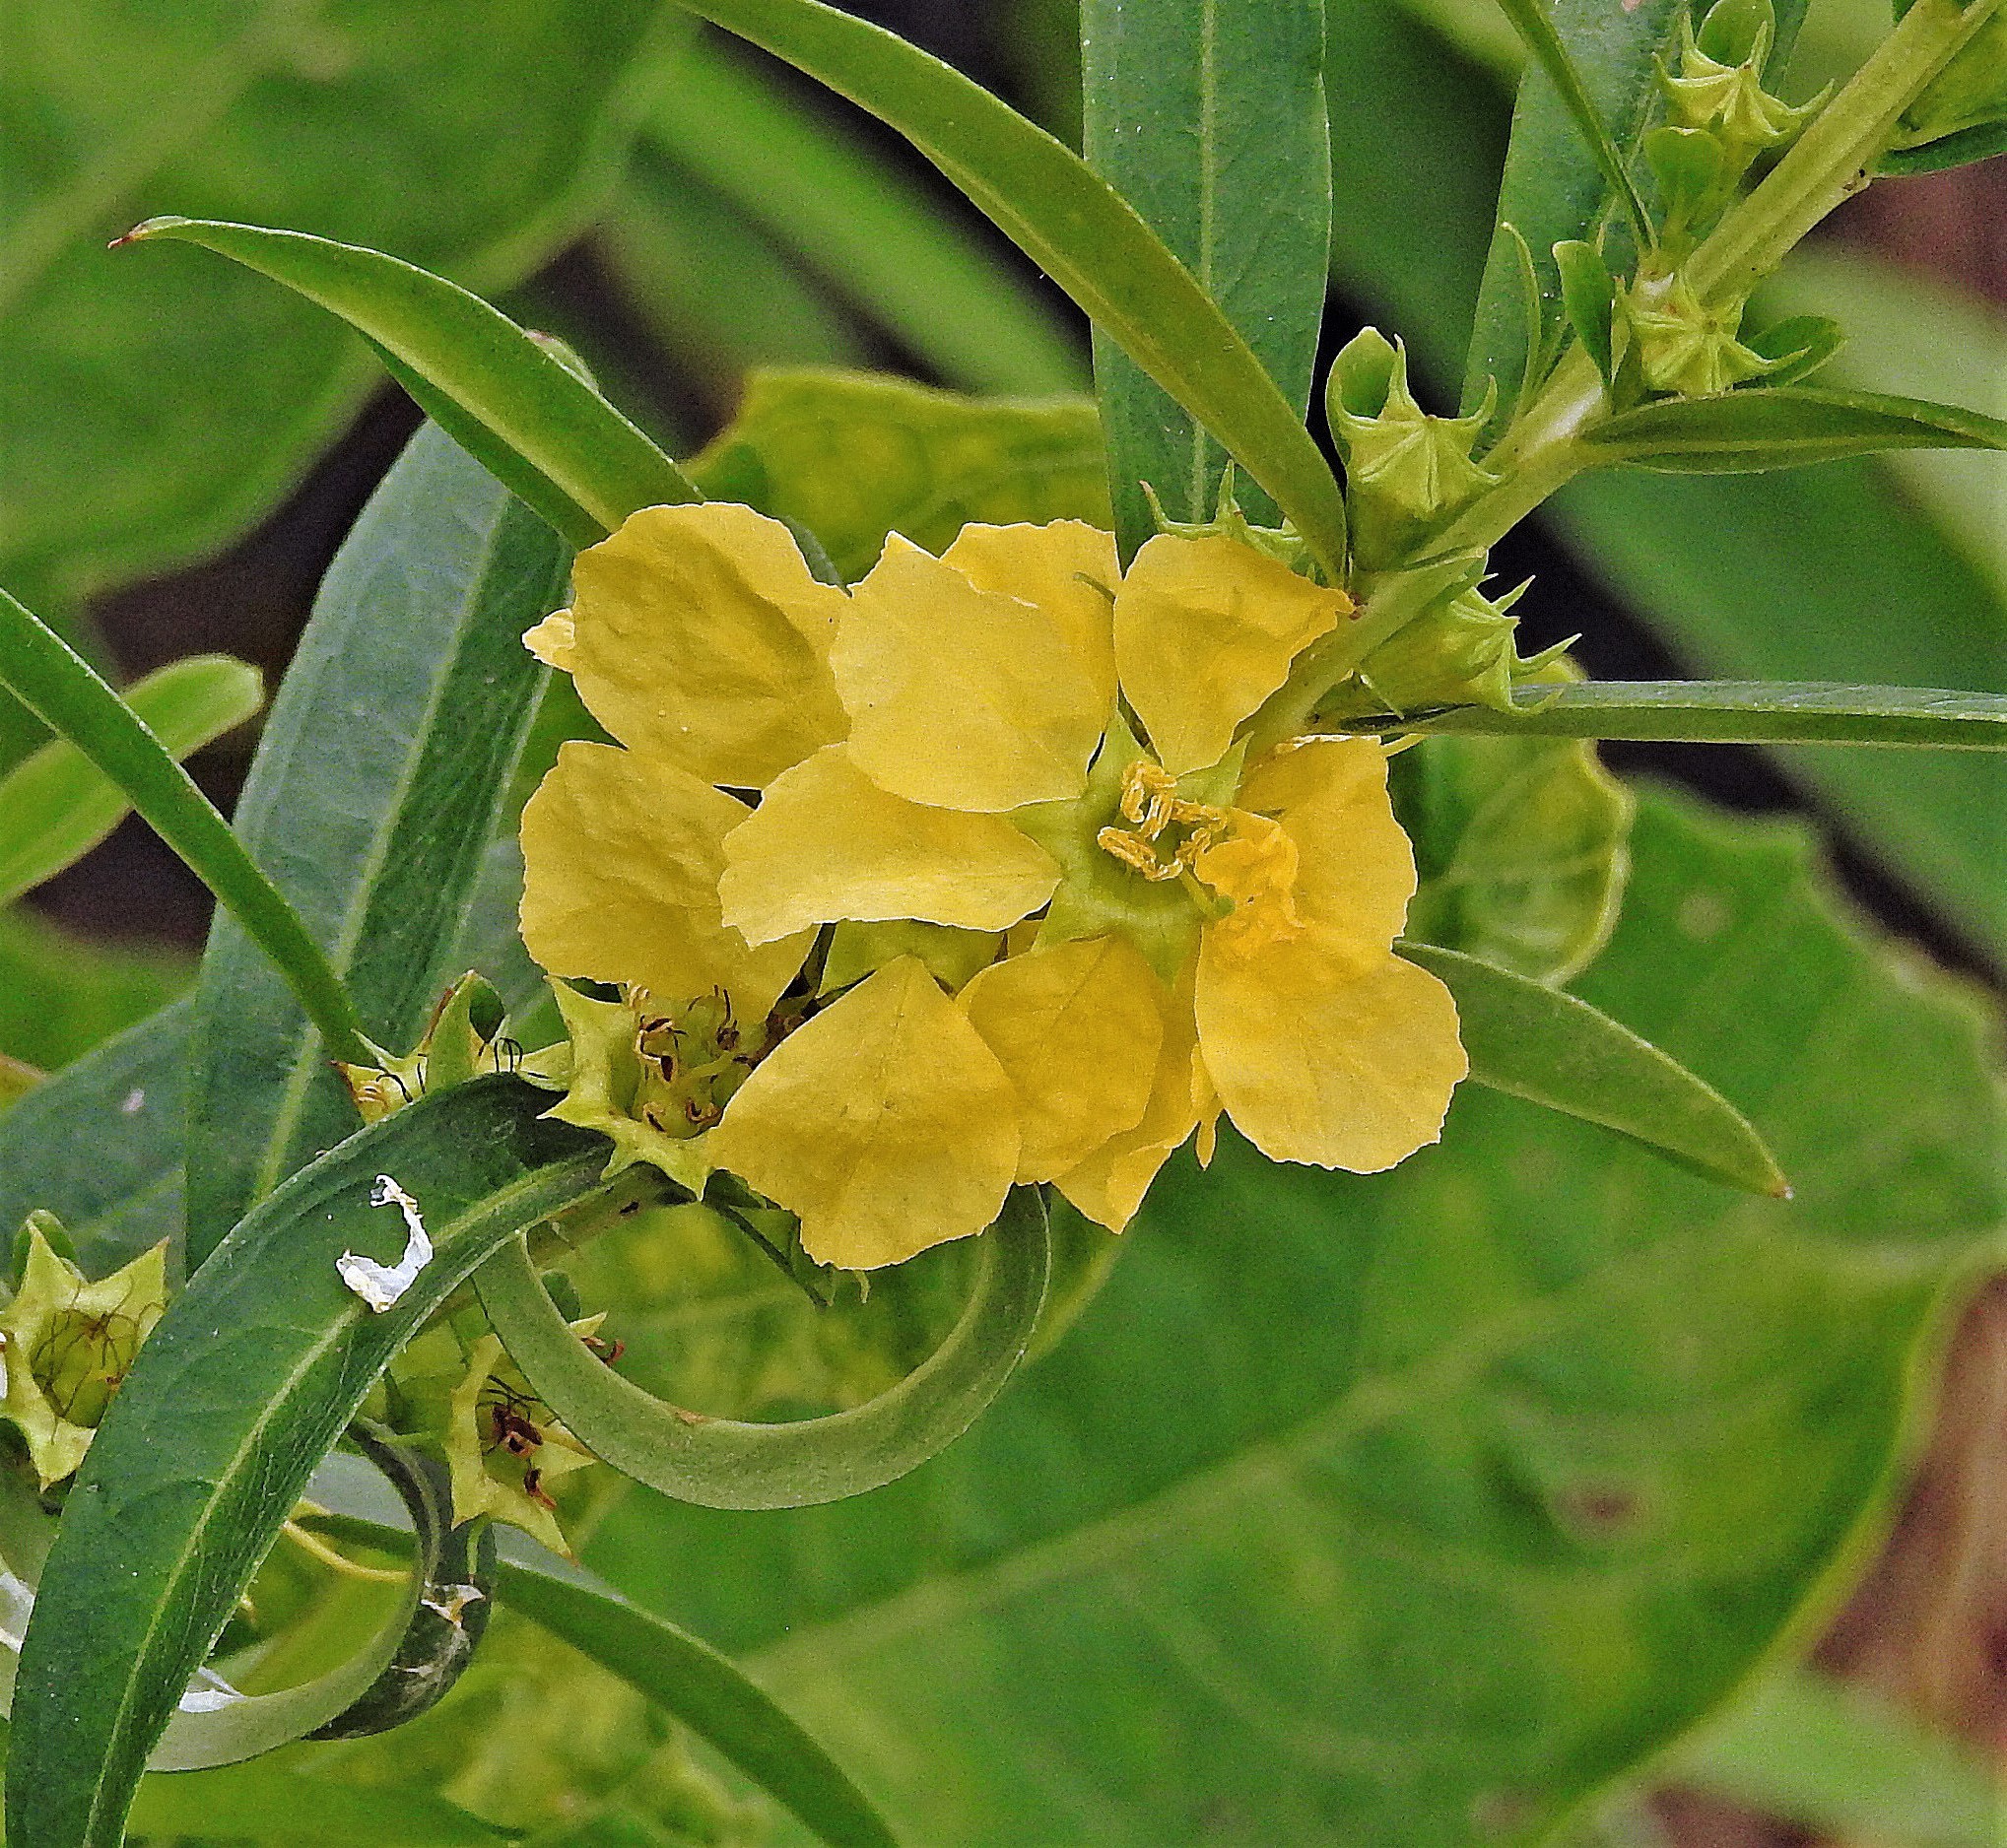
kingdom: Plantae
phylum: Tracheophyta
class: Magnoliopsida
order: Myrtales
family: Lythraceae
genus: Heimia
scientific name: Heimia salicifolia
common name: Willow-leaf heimia
